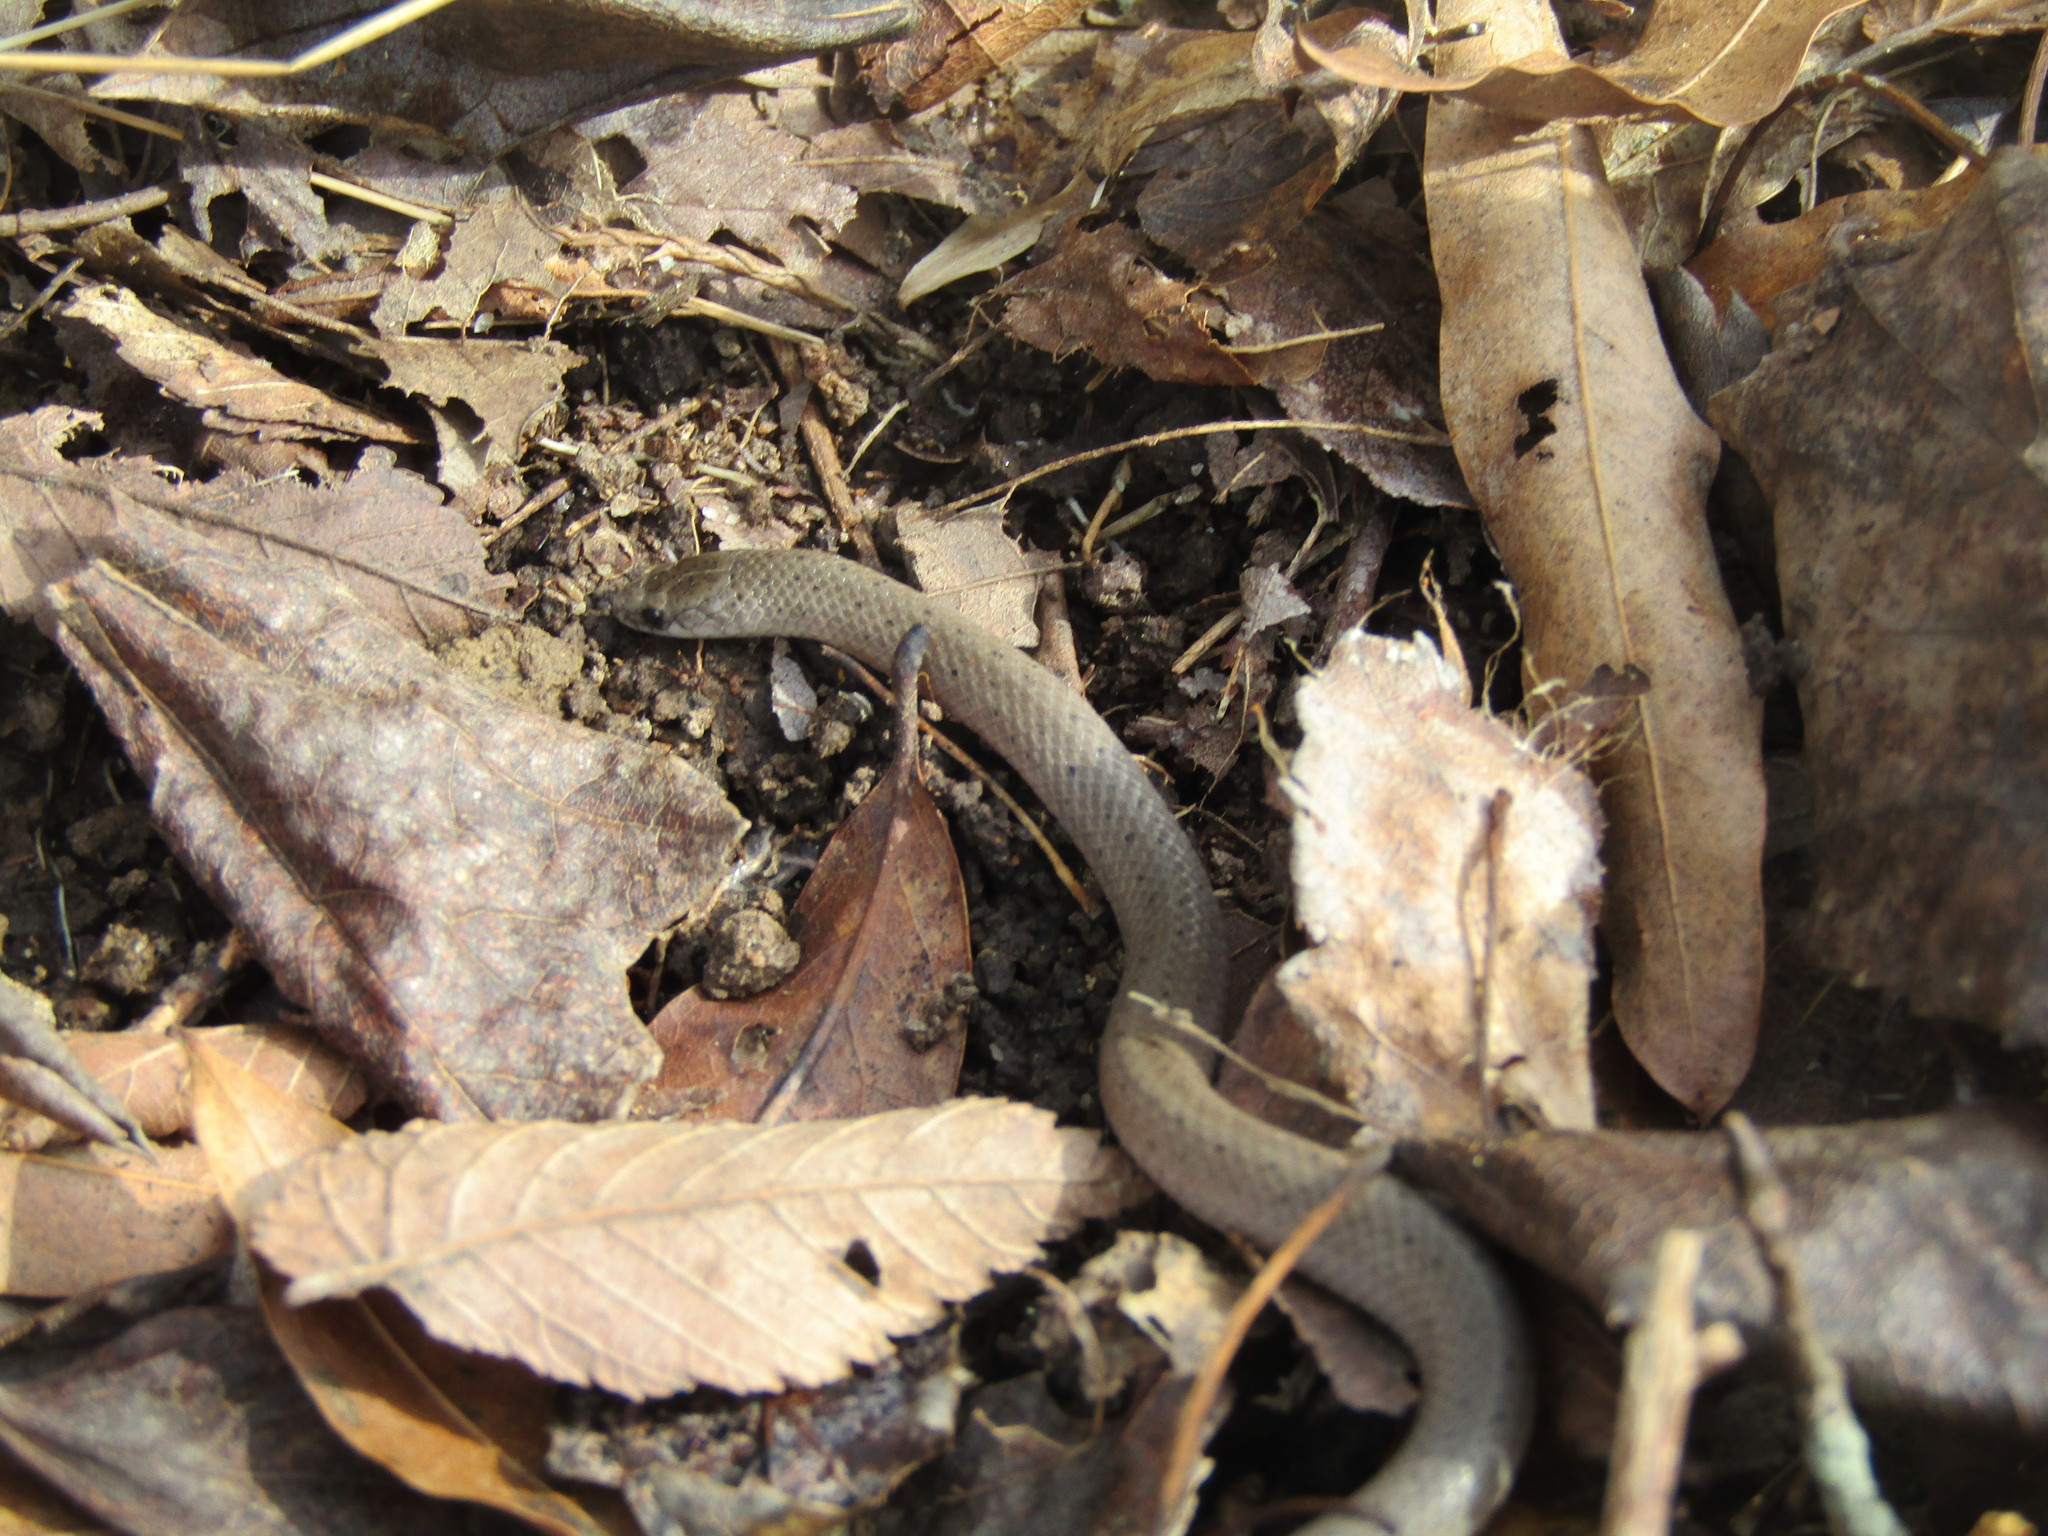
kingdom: Animalia
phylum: Chordata
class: Squamata
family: Colubridae
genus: Virginia
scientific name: Virginia valeriae
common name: Smooth earth snake
